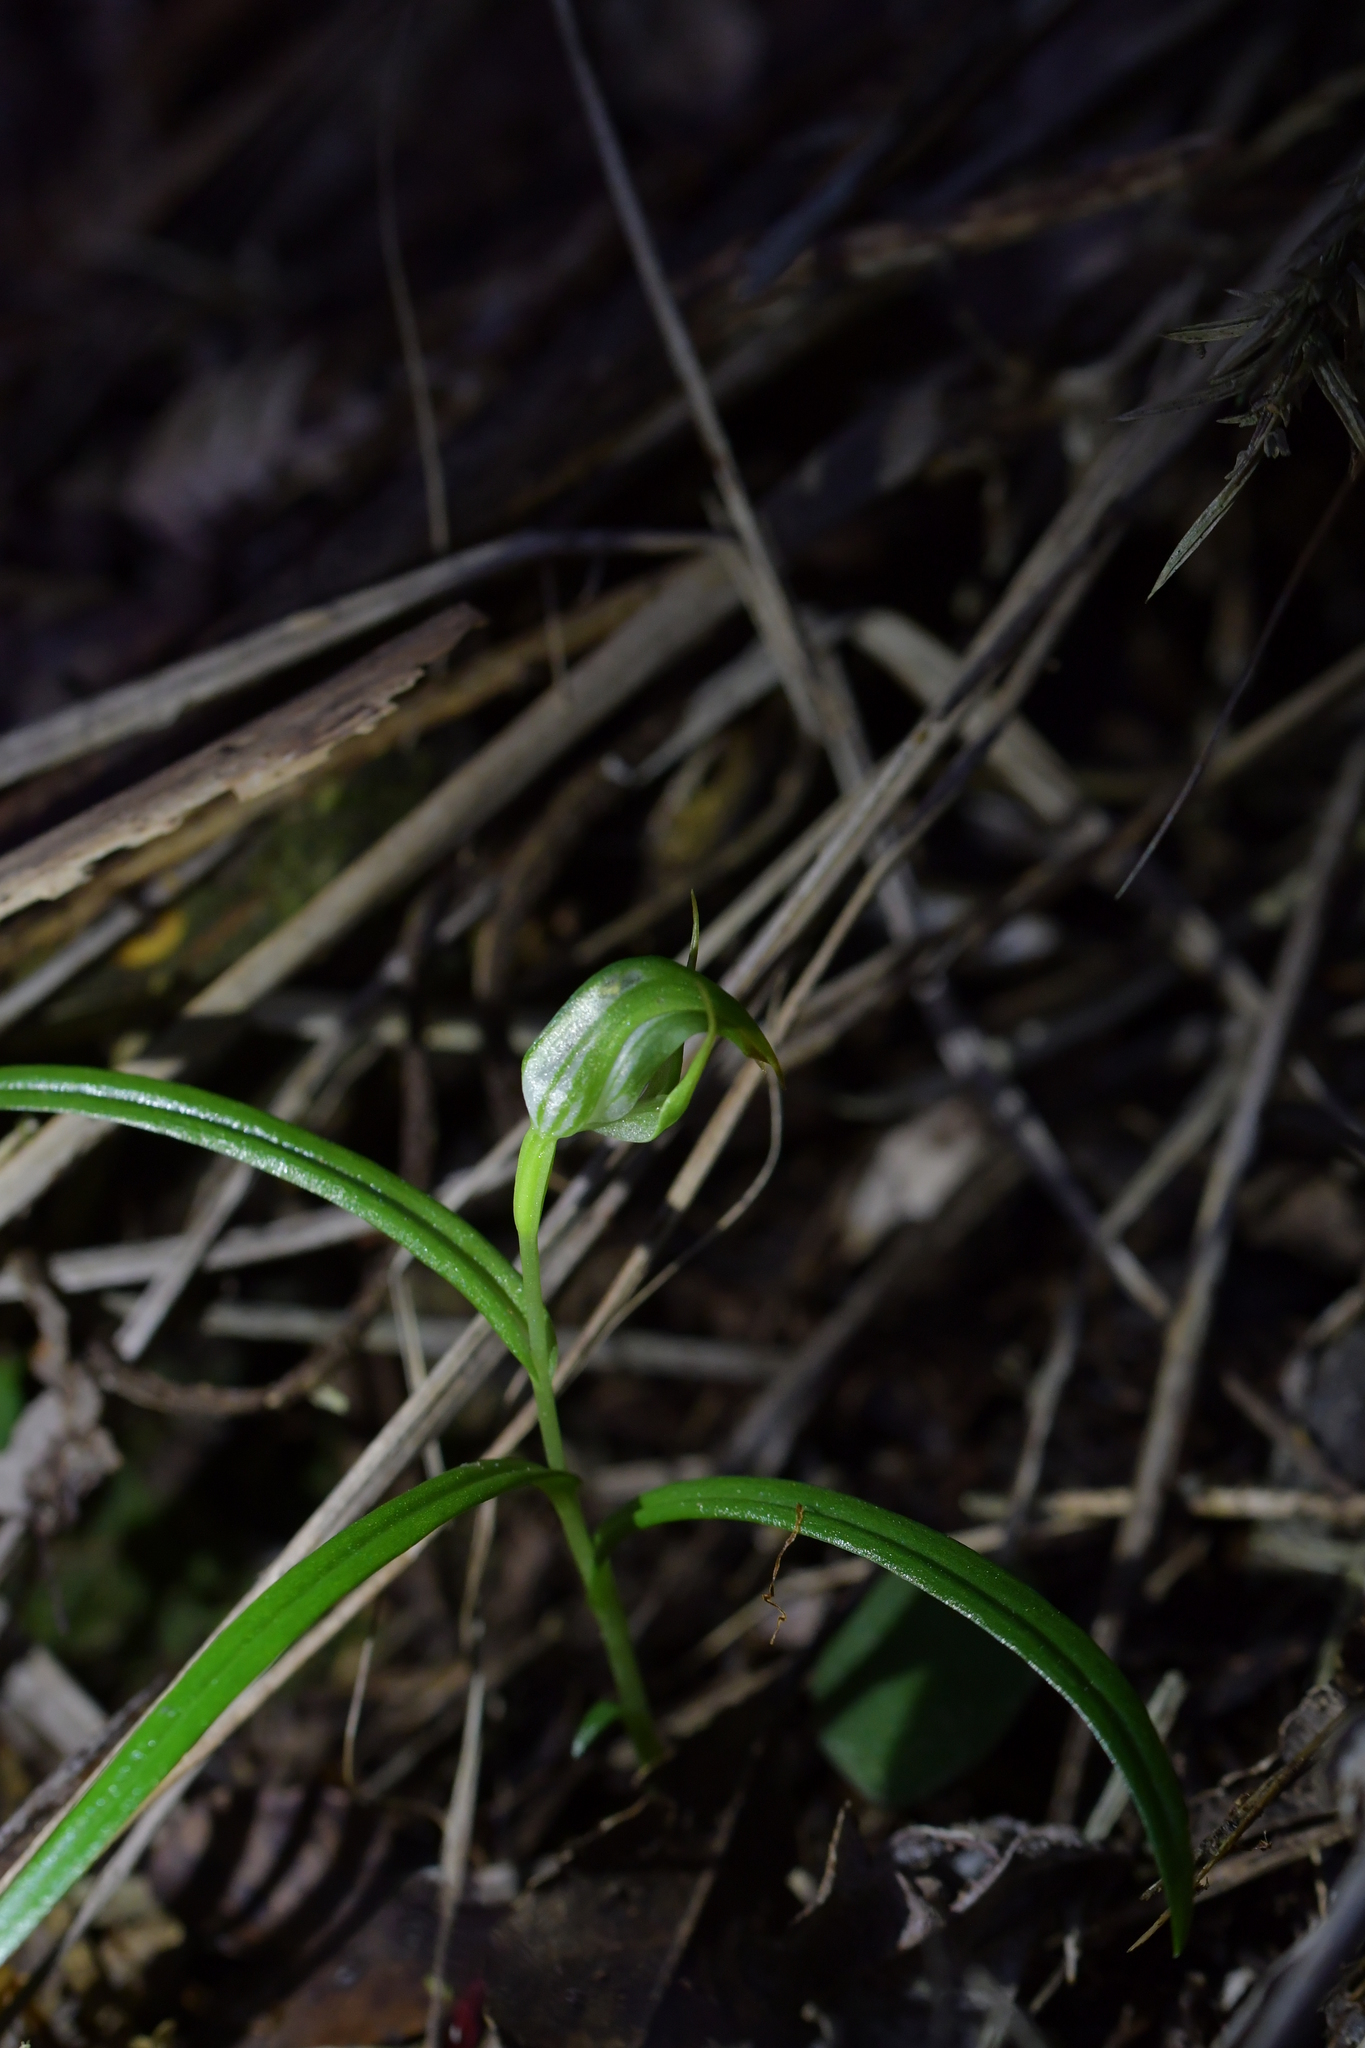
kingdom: Plantae
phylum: Tracheophyta
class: Liliopsida
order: Asparagales
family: Orchidaceae
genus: Pterostylis
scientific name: Pterostylis graminea
